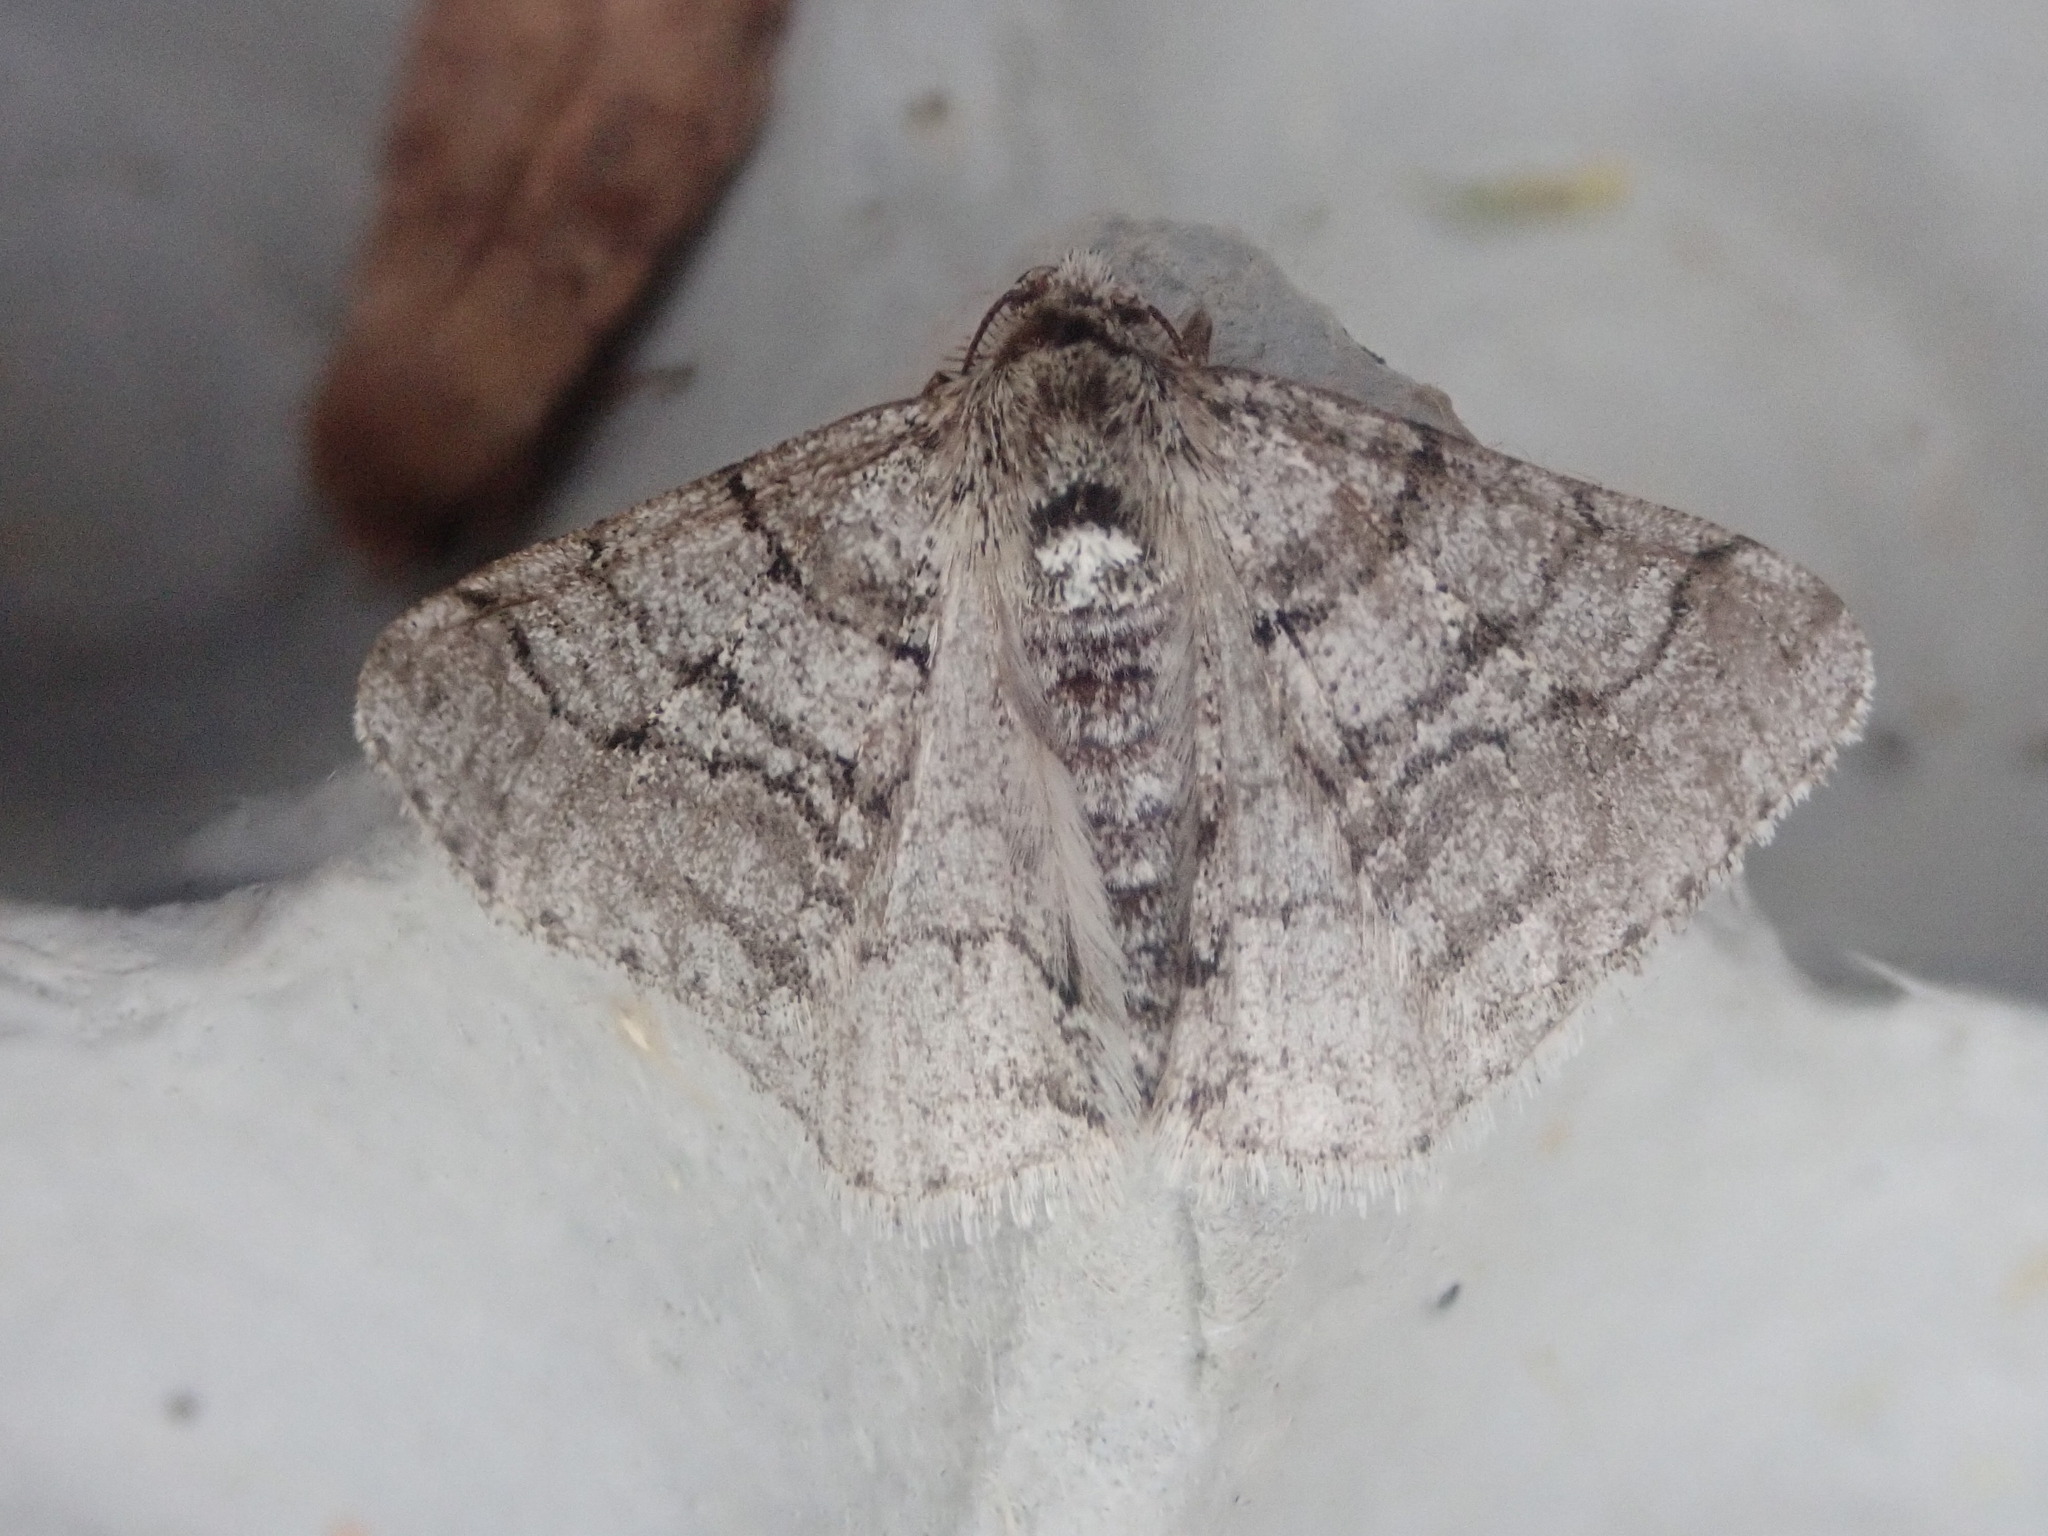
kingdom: Animalia
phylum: Arthropoda
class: Insecta
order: Lepidoptera
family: Geometridae
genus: Phigalia
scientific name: Phigalia titea
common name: Spiny looper
